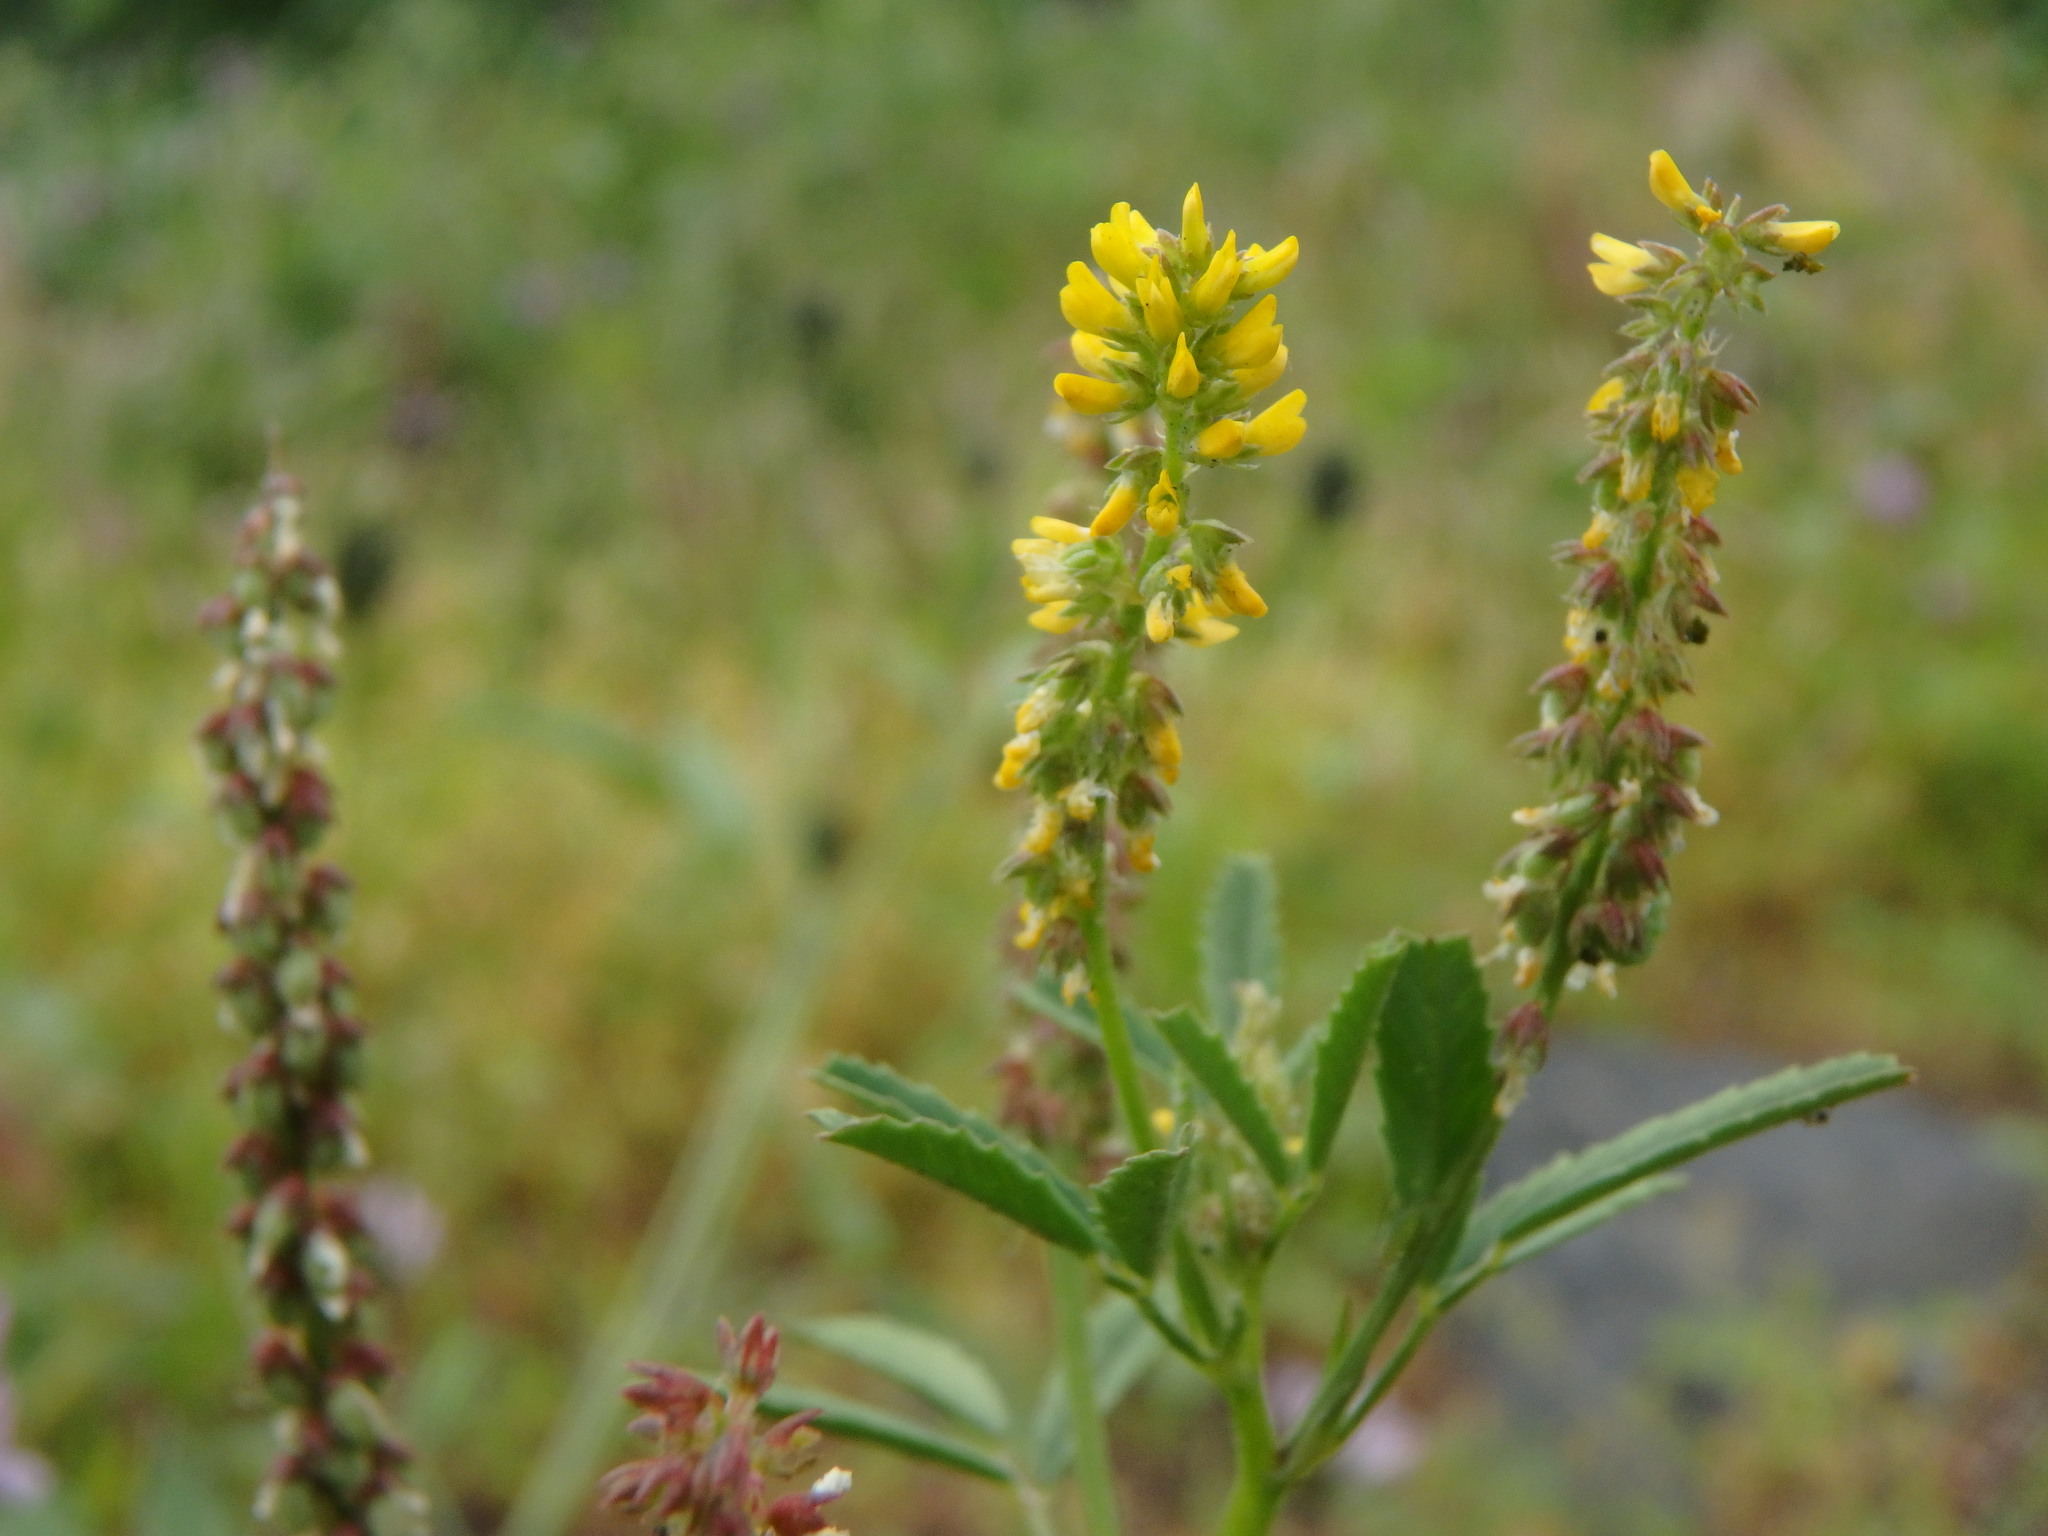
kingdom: Plantae
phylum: Tracheophyta
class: Magnoliopsida
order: Fabales
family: Fabaceae
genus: Melilotus
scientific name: Melilotus indicus
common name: Small melilot
